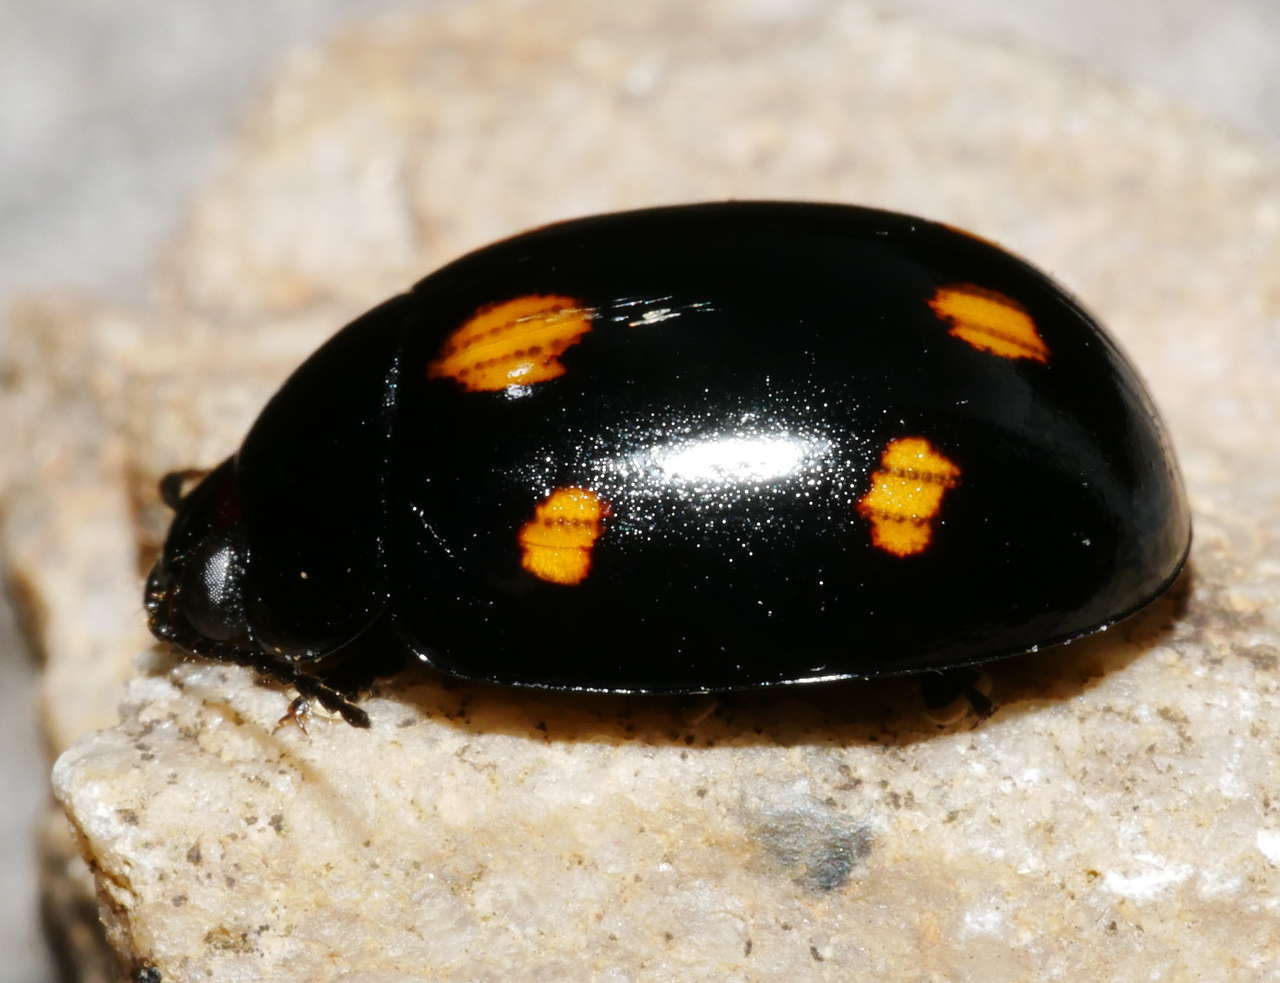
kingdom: Animalia
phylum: Arthropoda
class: Insecta
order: Coleoptera
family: Chrysomelidae
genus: Paropsisterna
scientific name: Paropsisterna
